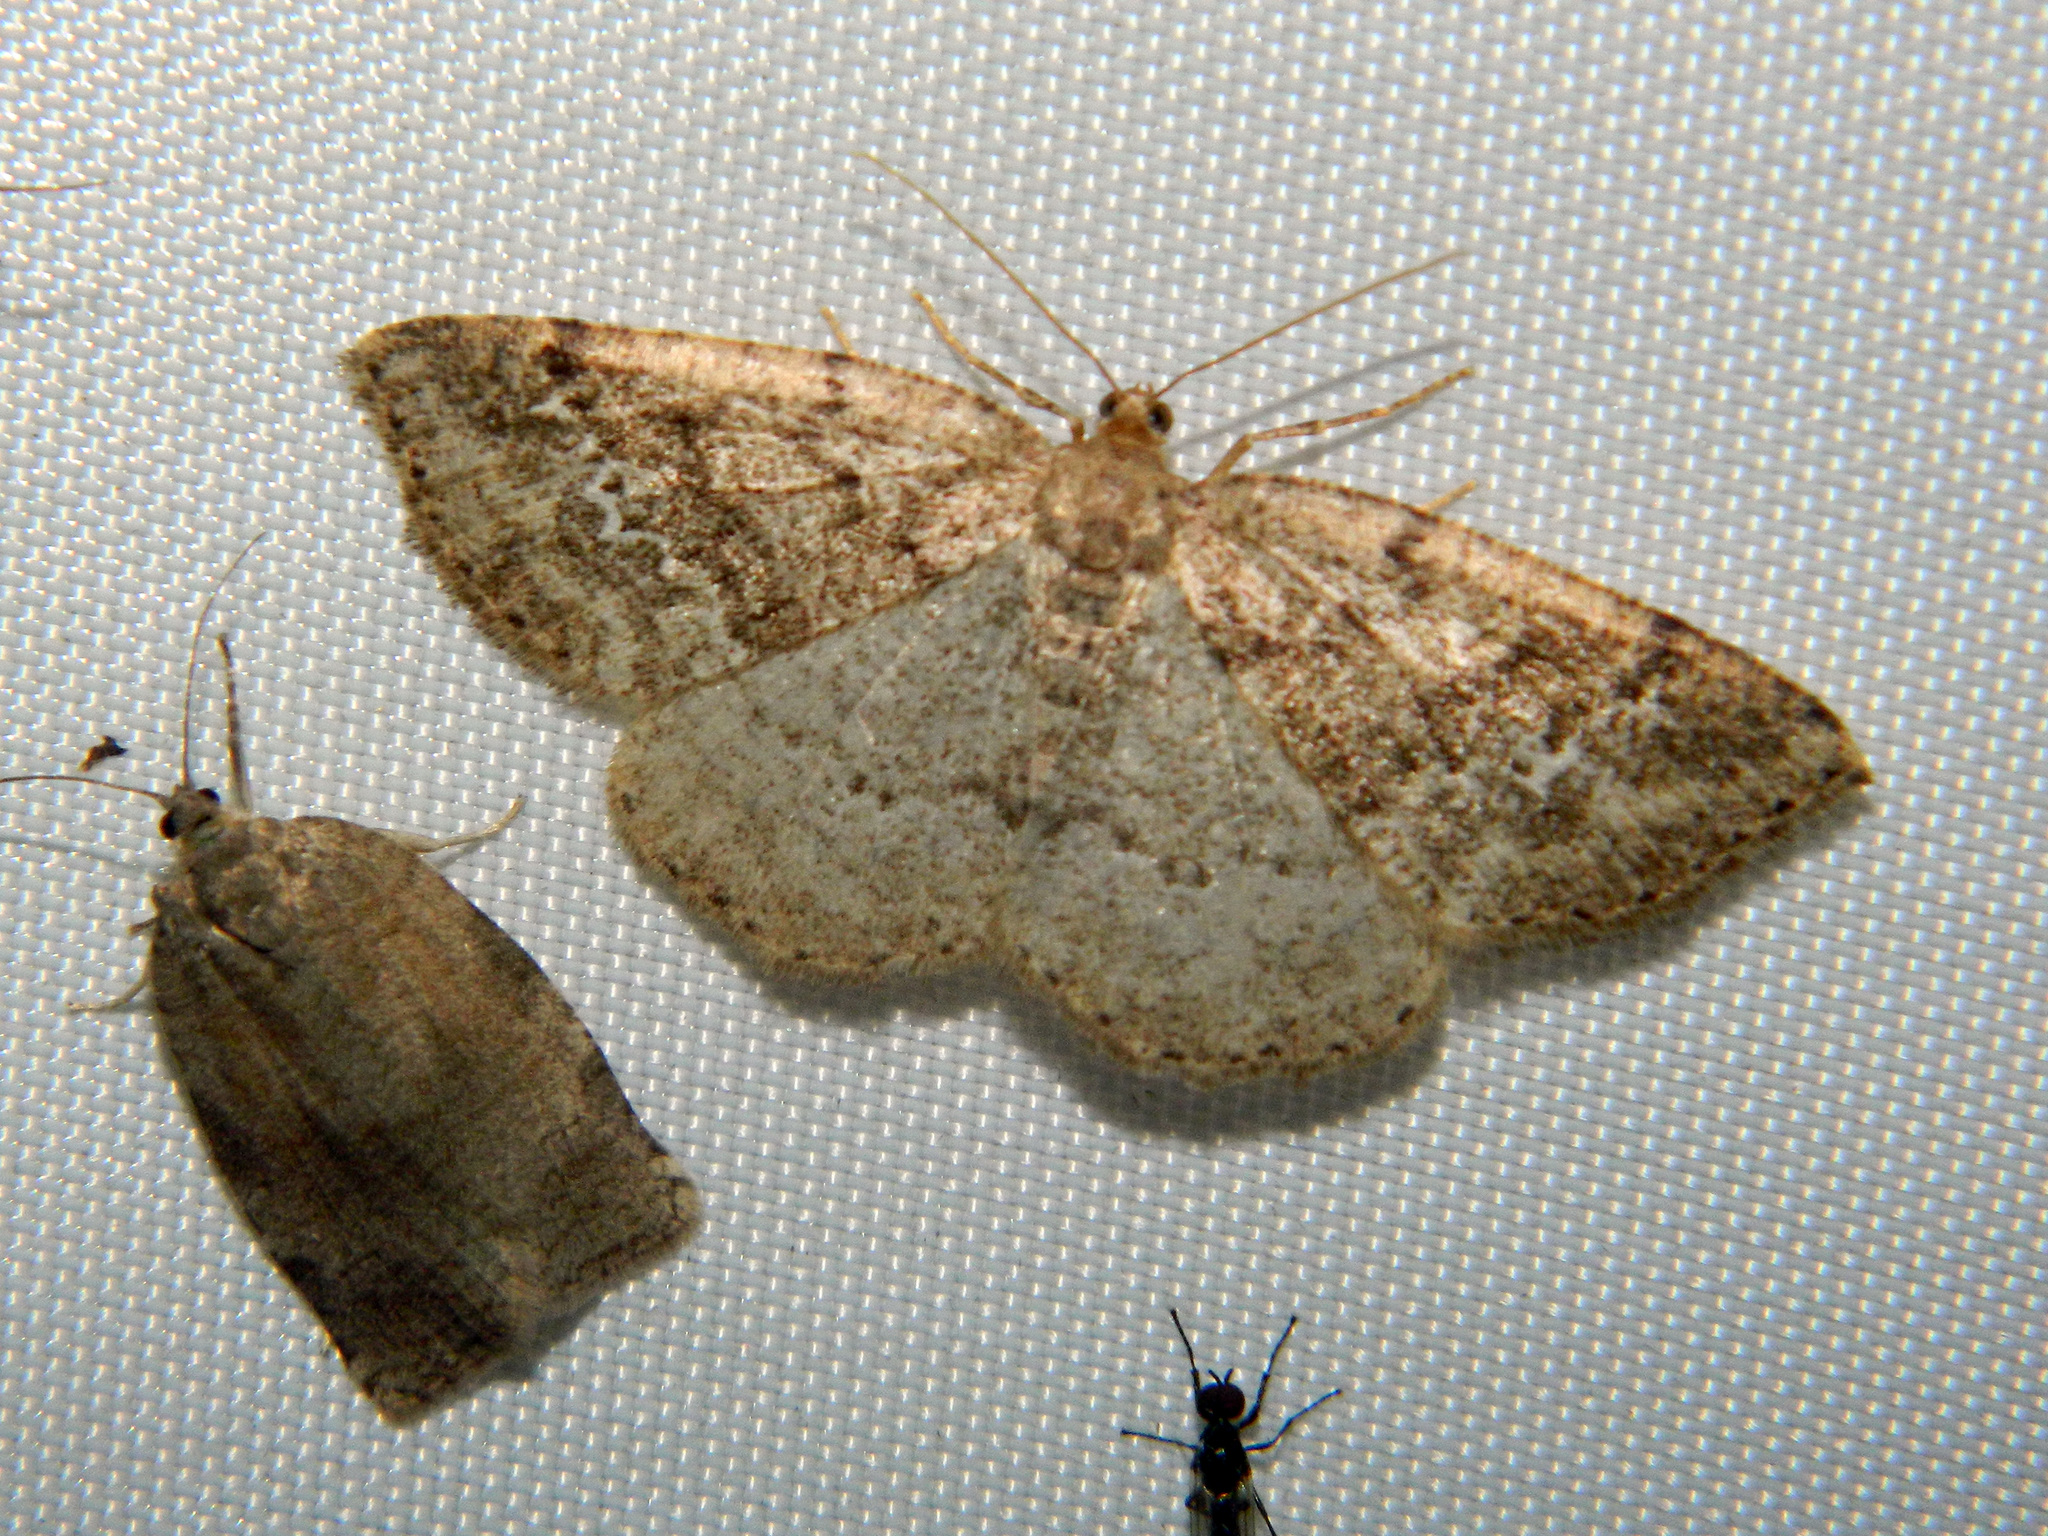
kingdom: Animalia
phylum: Arthropoda
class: Insecta
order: Lepidoptera
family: Geometridae
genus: Homochlodes
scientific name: Homochlodes fritillaria
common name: Pale homochlodes
